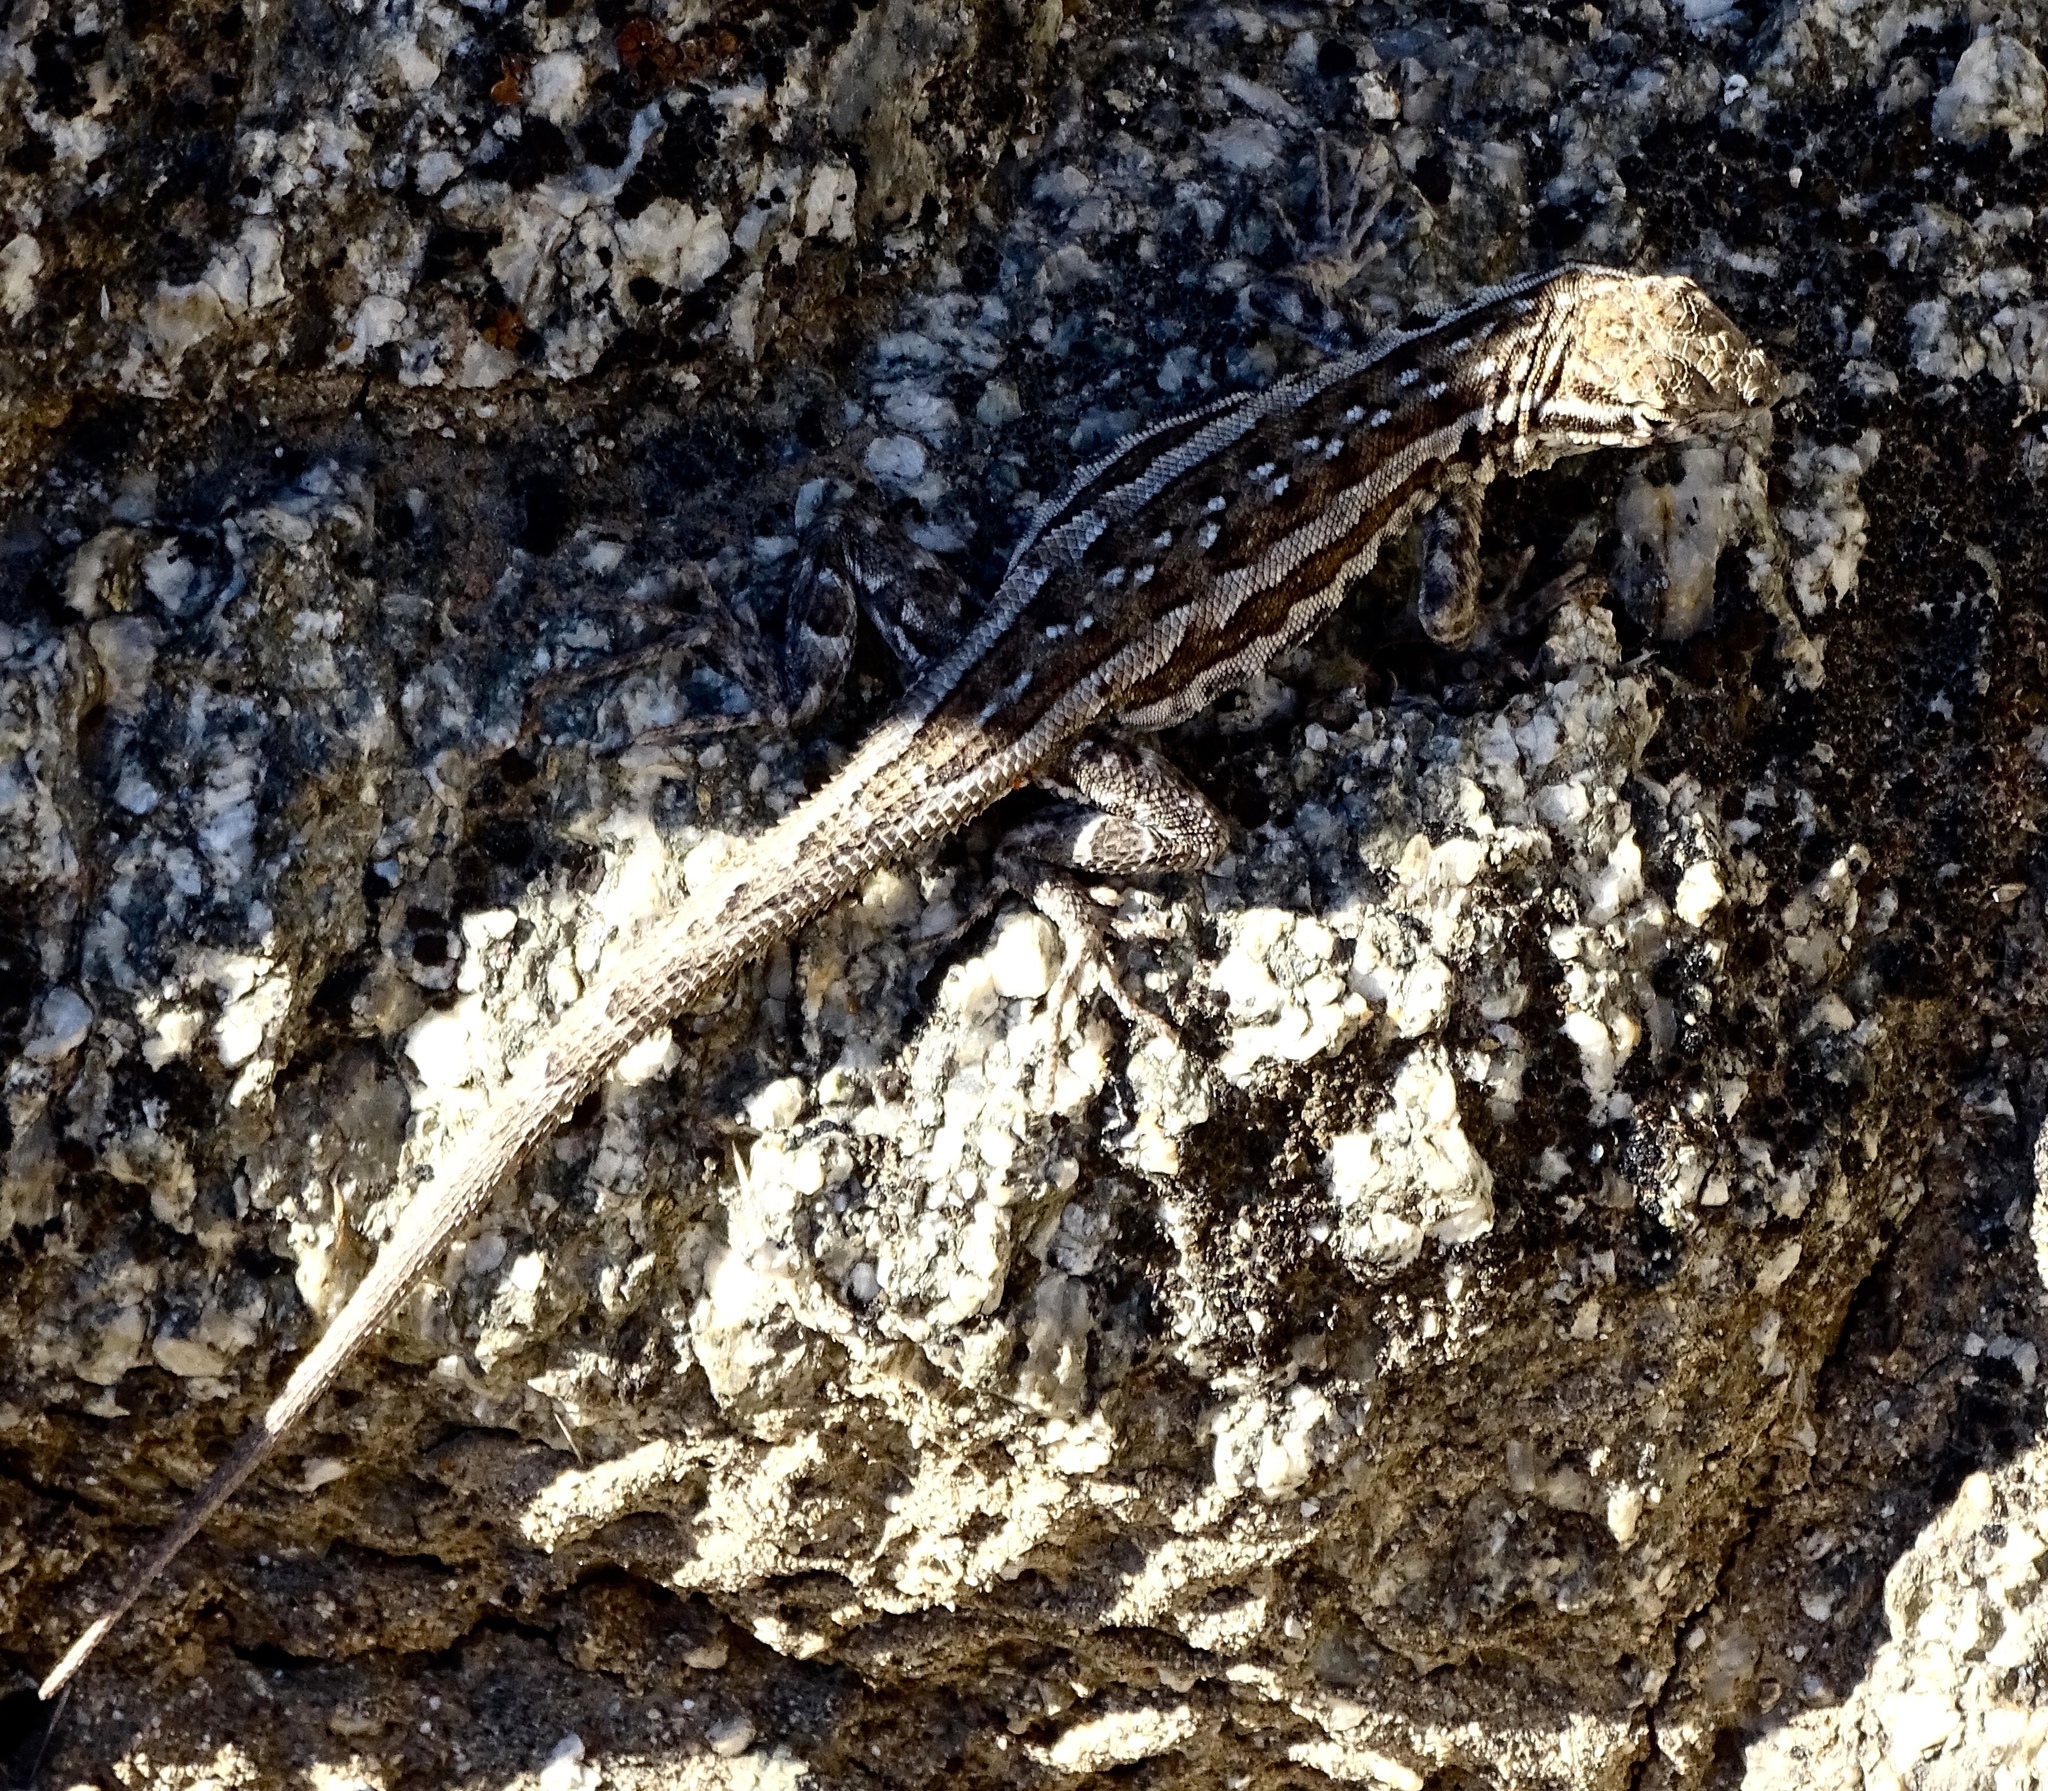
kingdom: Animalia
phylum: Chordata
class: Squamata
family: Phrynosomatidae
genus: Uta
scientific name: Uta stansburiana
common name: Side-blotched lizard
